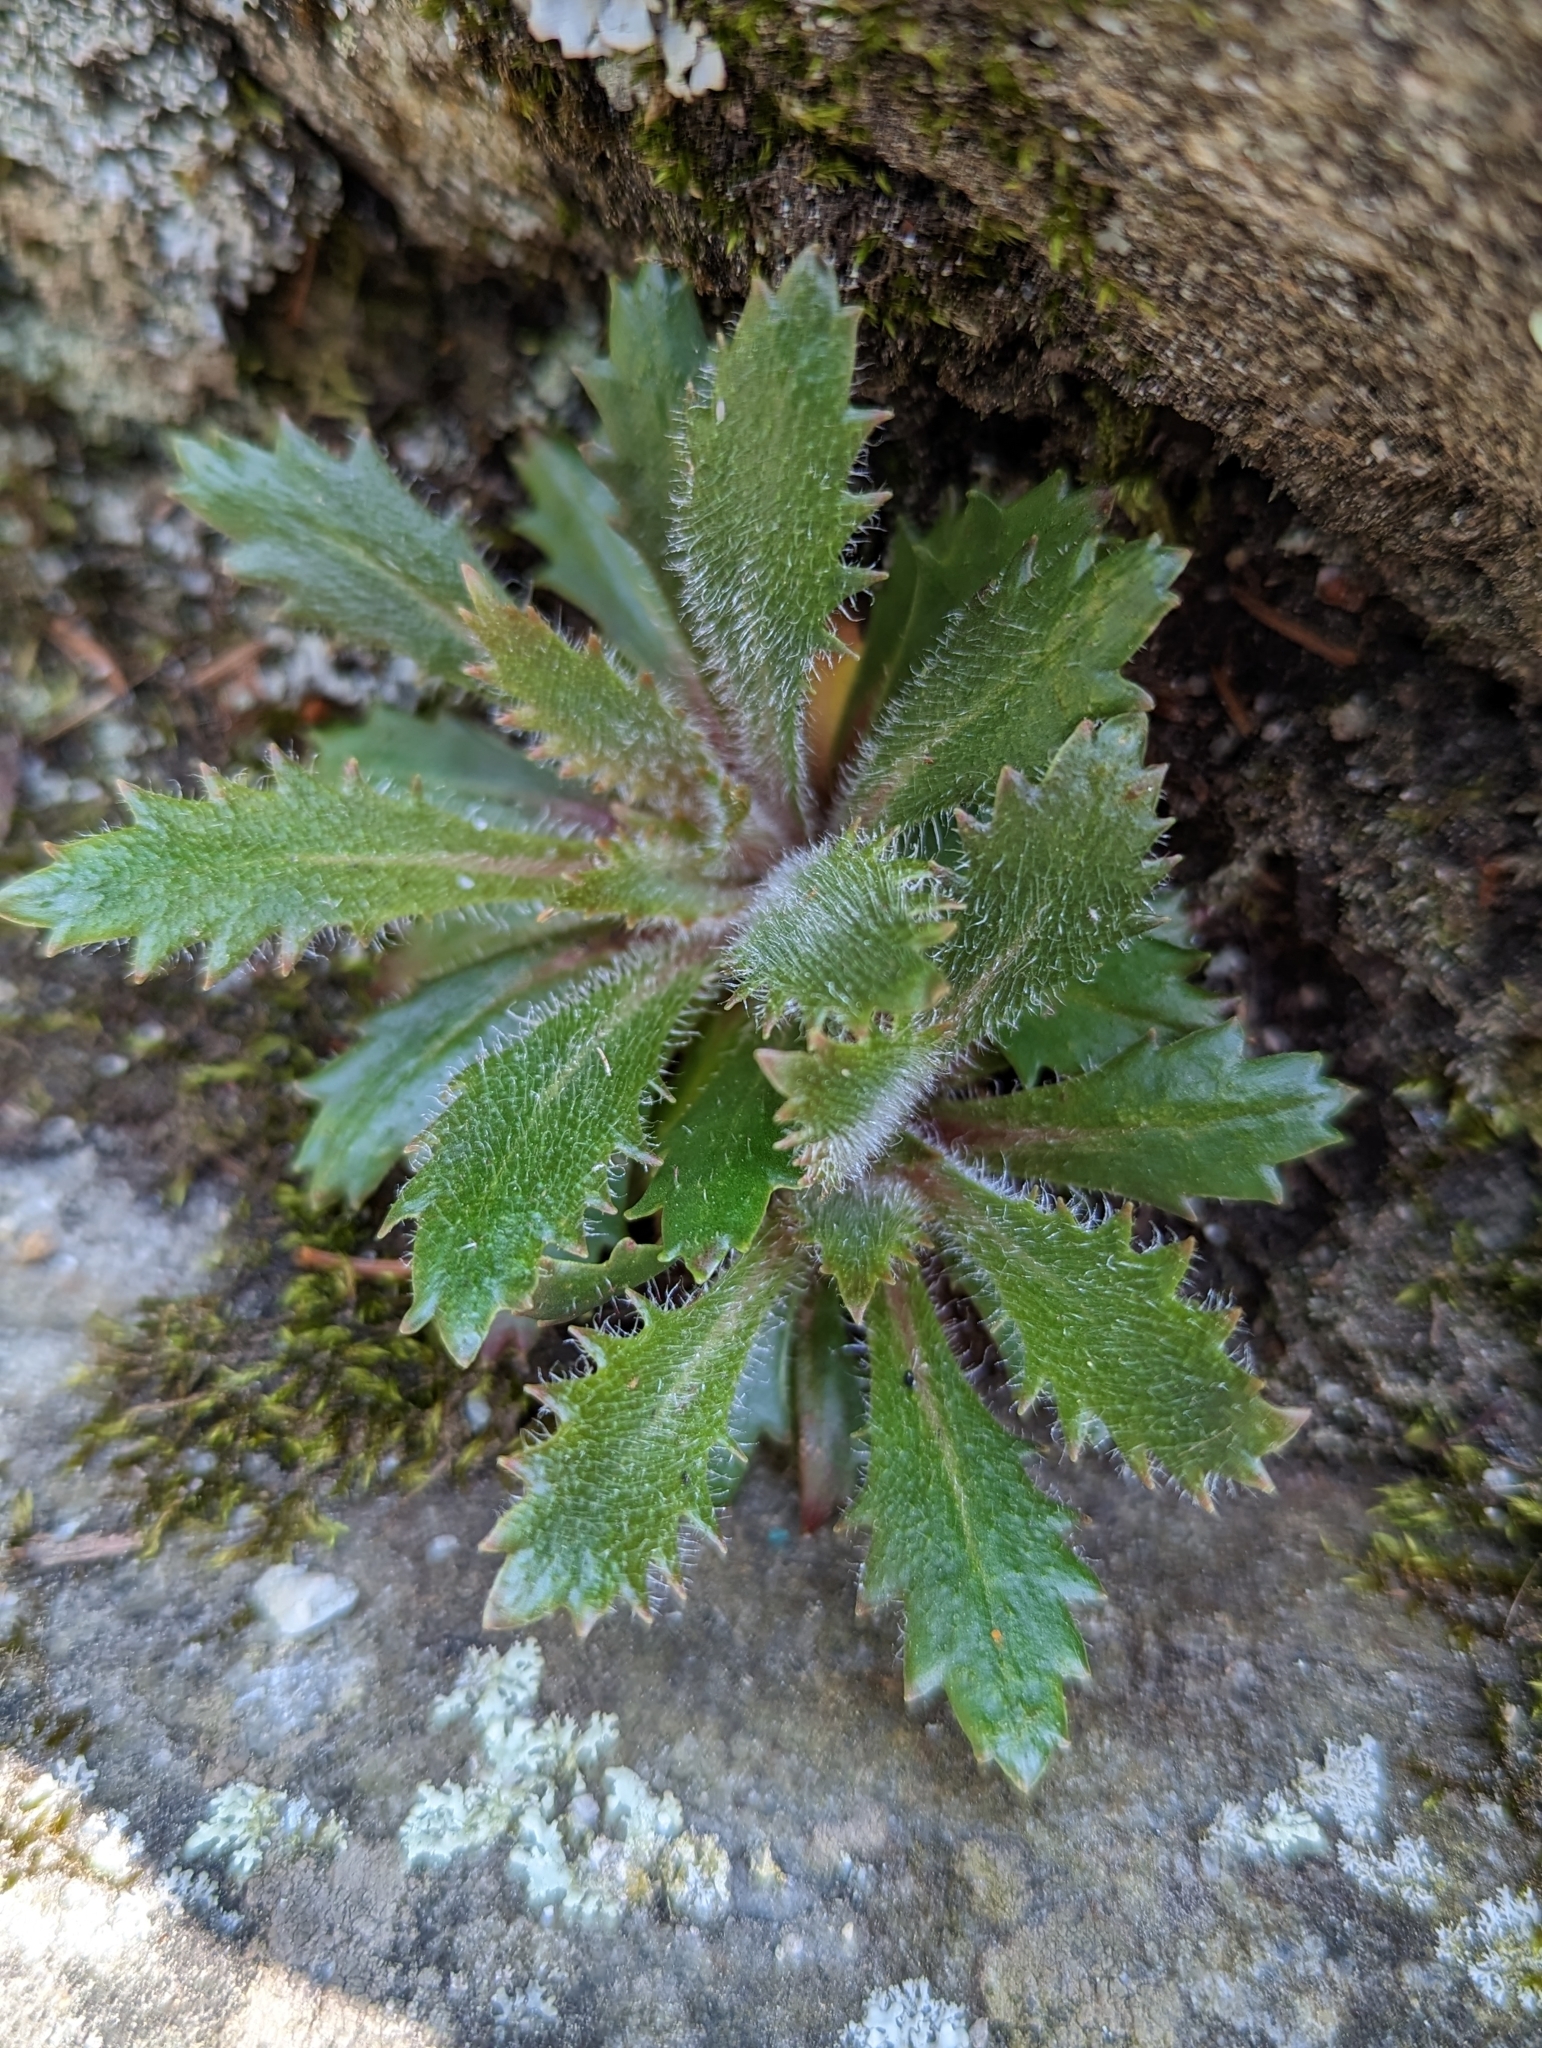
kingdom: Plantae
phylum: Tracheophyta
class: Magnoliopsida
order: Saxifragales
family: Saxifragaceae
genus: Micranthes
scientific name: Micranthes petiolaris
